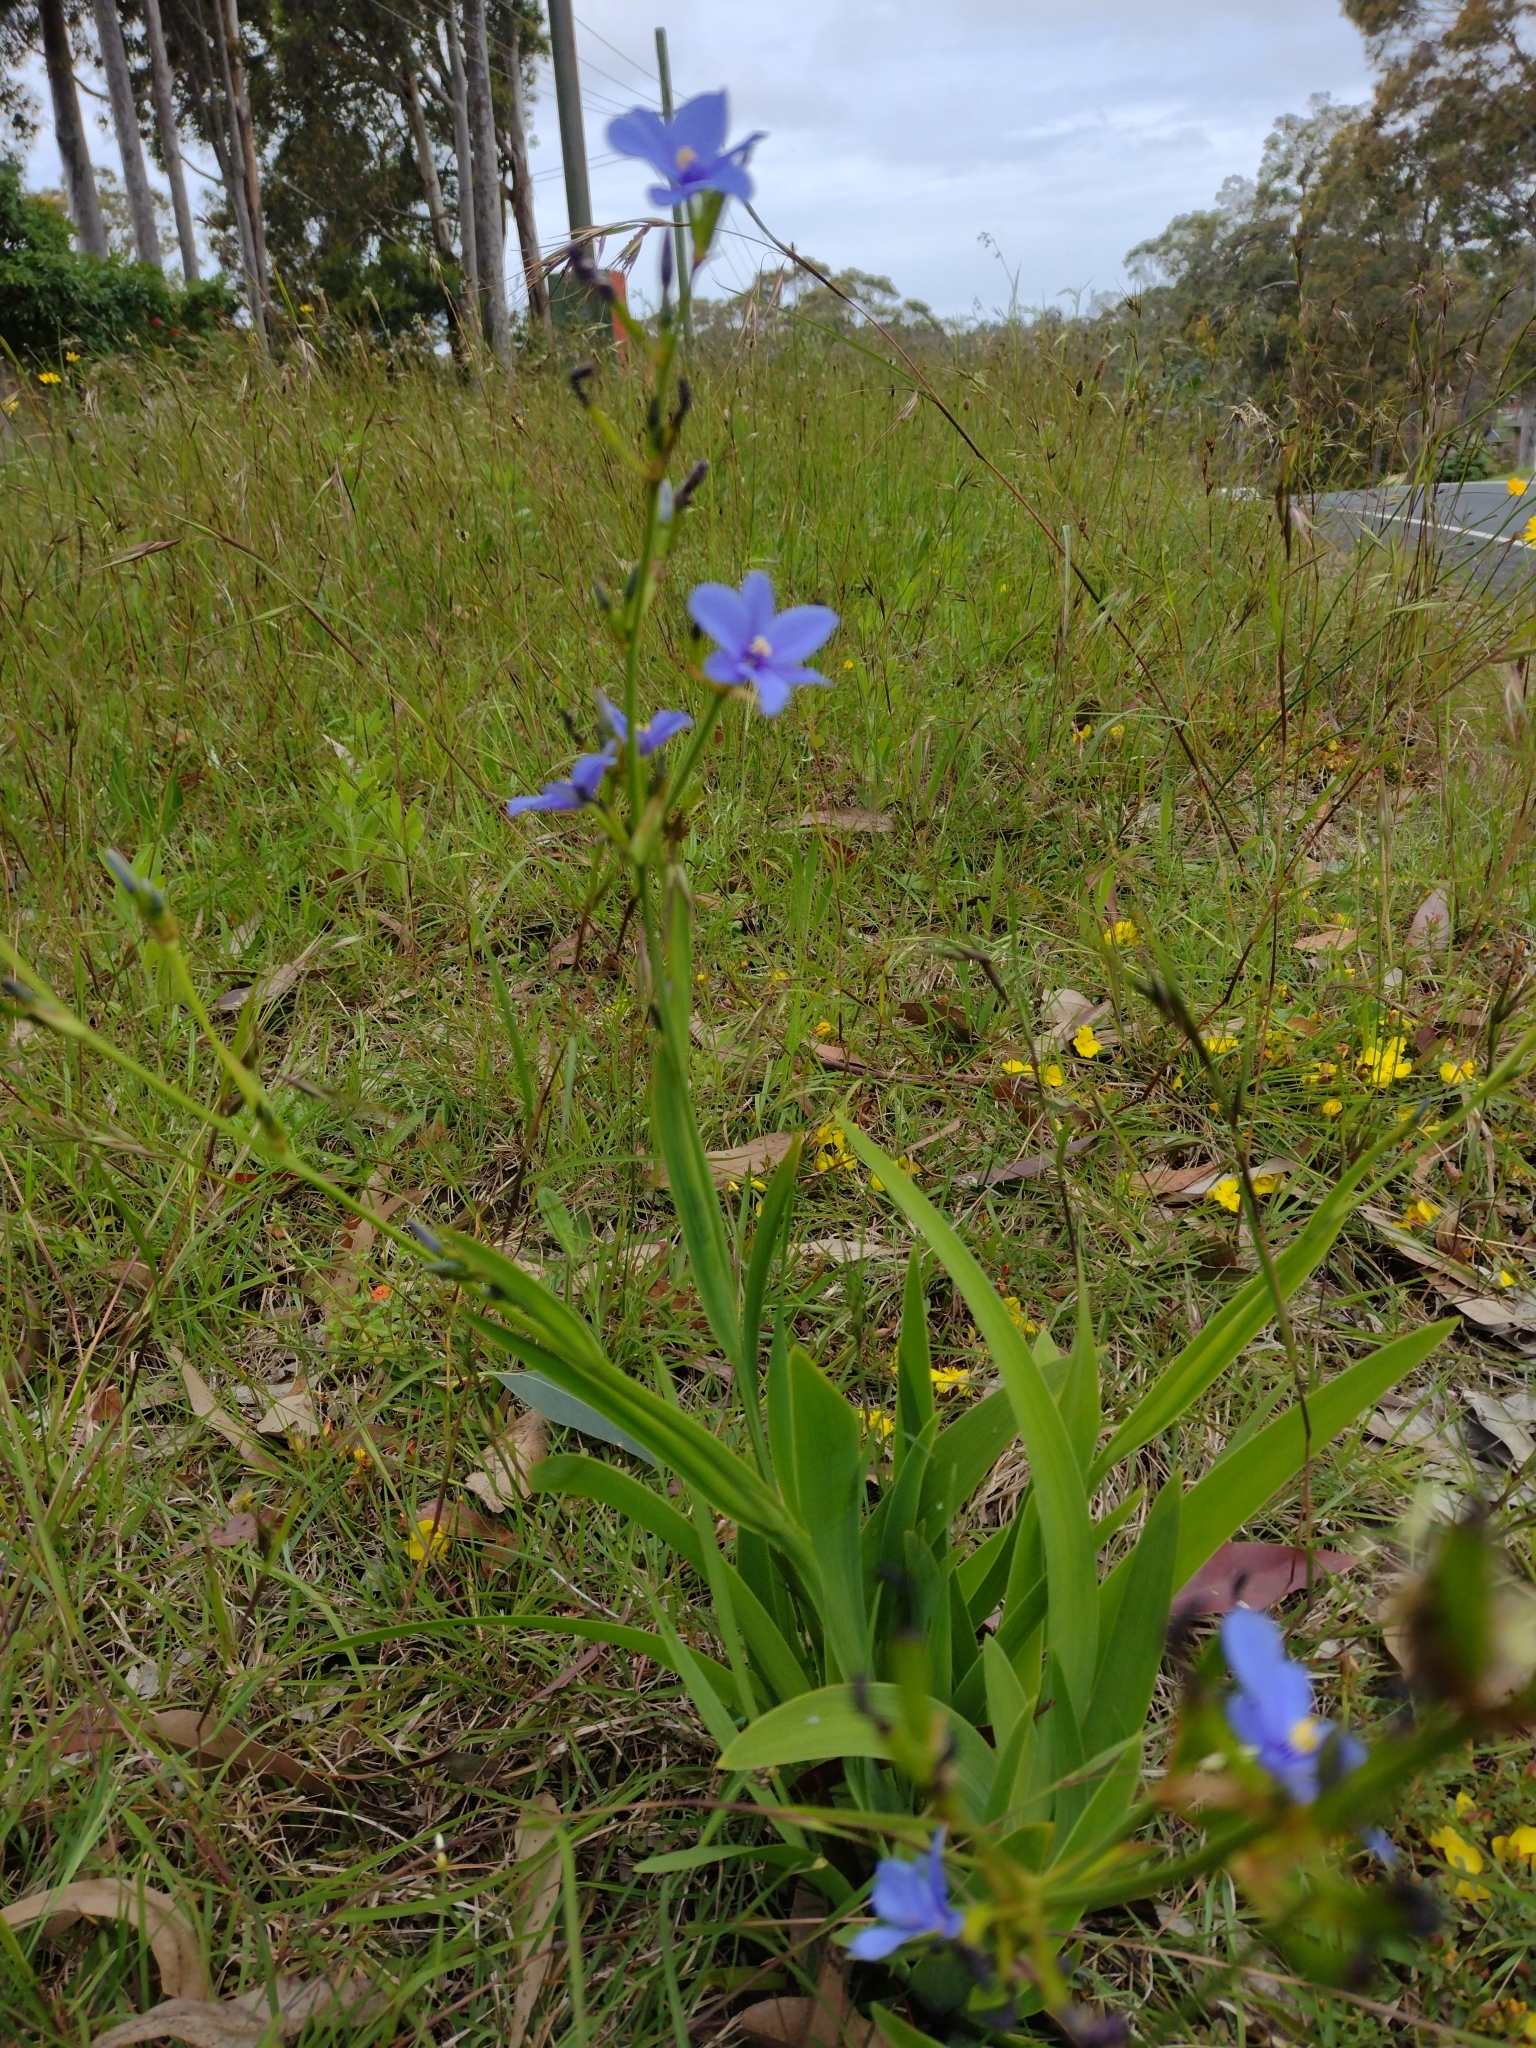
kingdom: Plantae
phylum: Tracheophyta
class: Liliopsida
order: Asparagales
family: Iridaceae
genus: Aristea
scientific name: Aristea ecklonii
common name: Blue corn-lily
